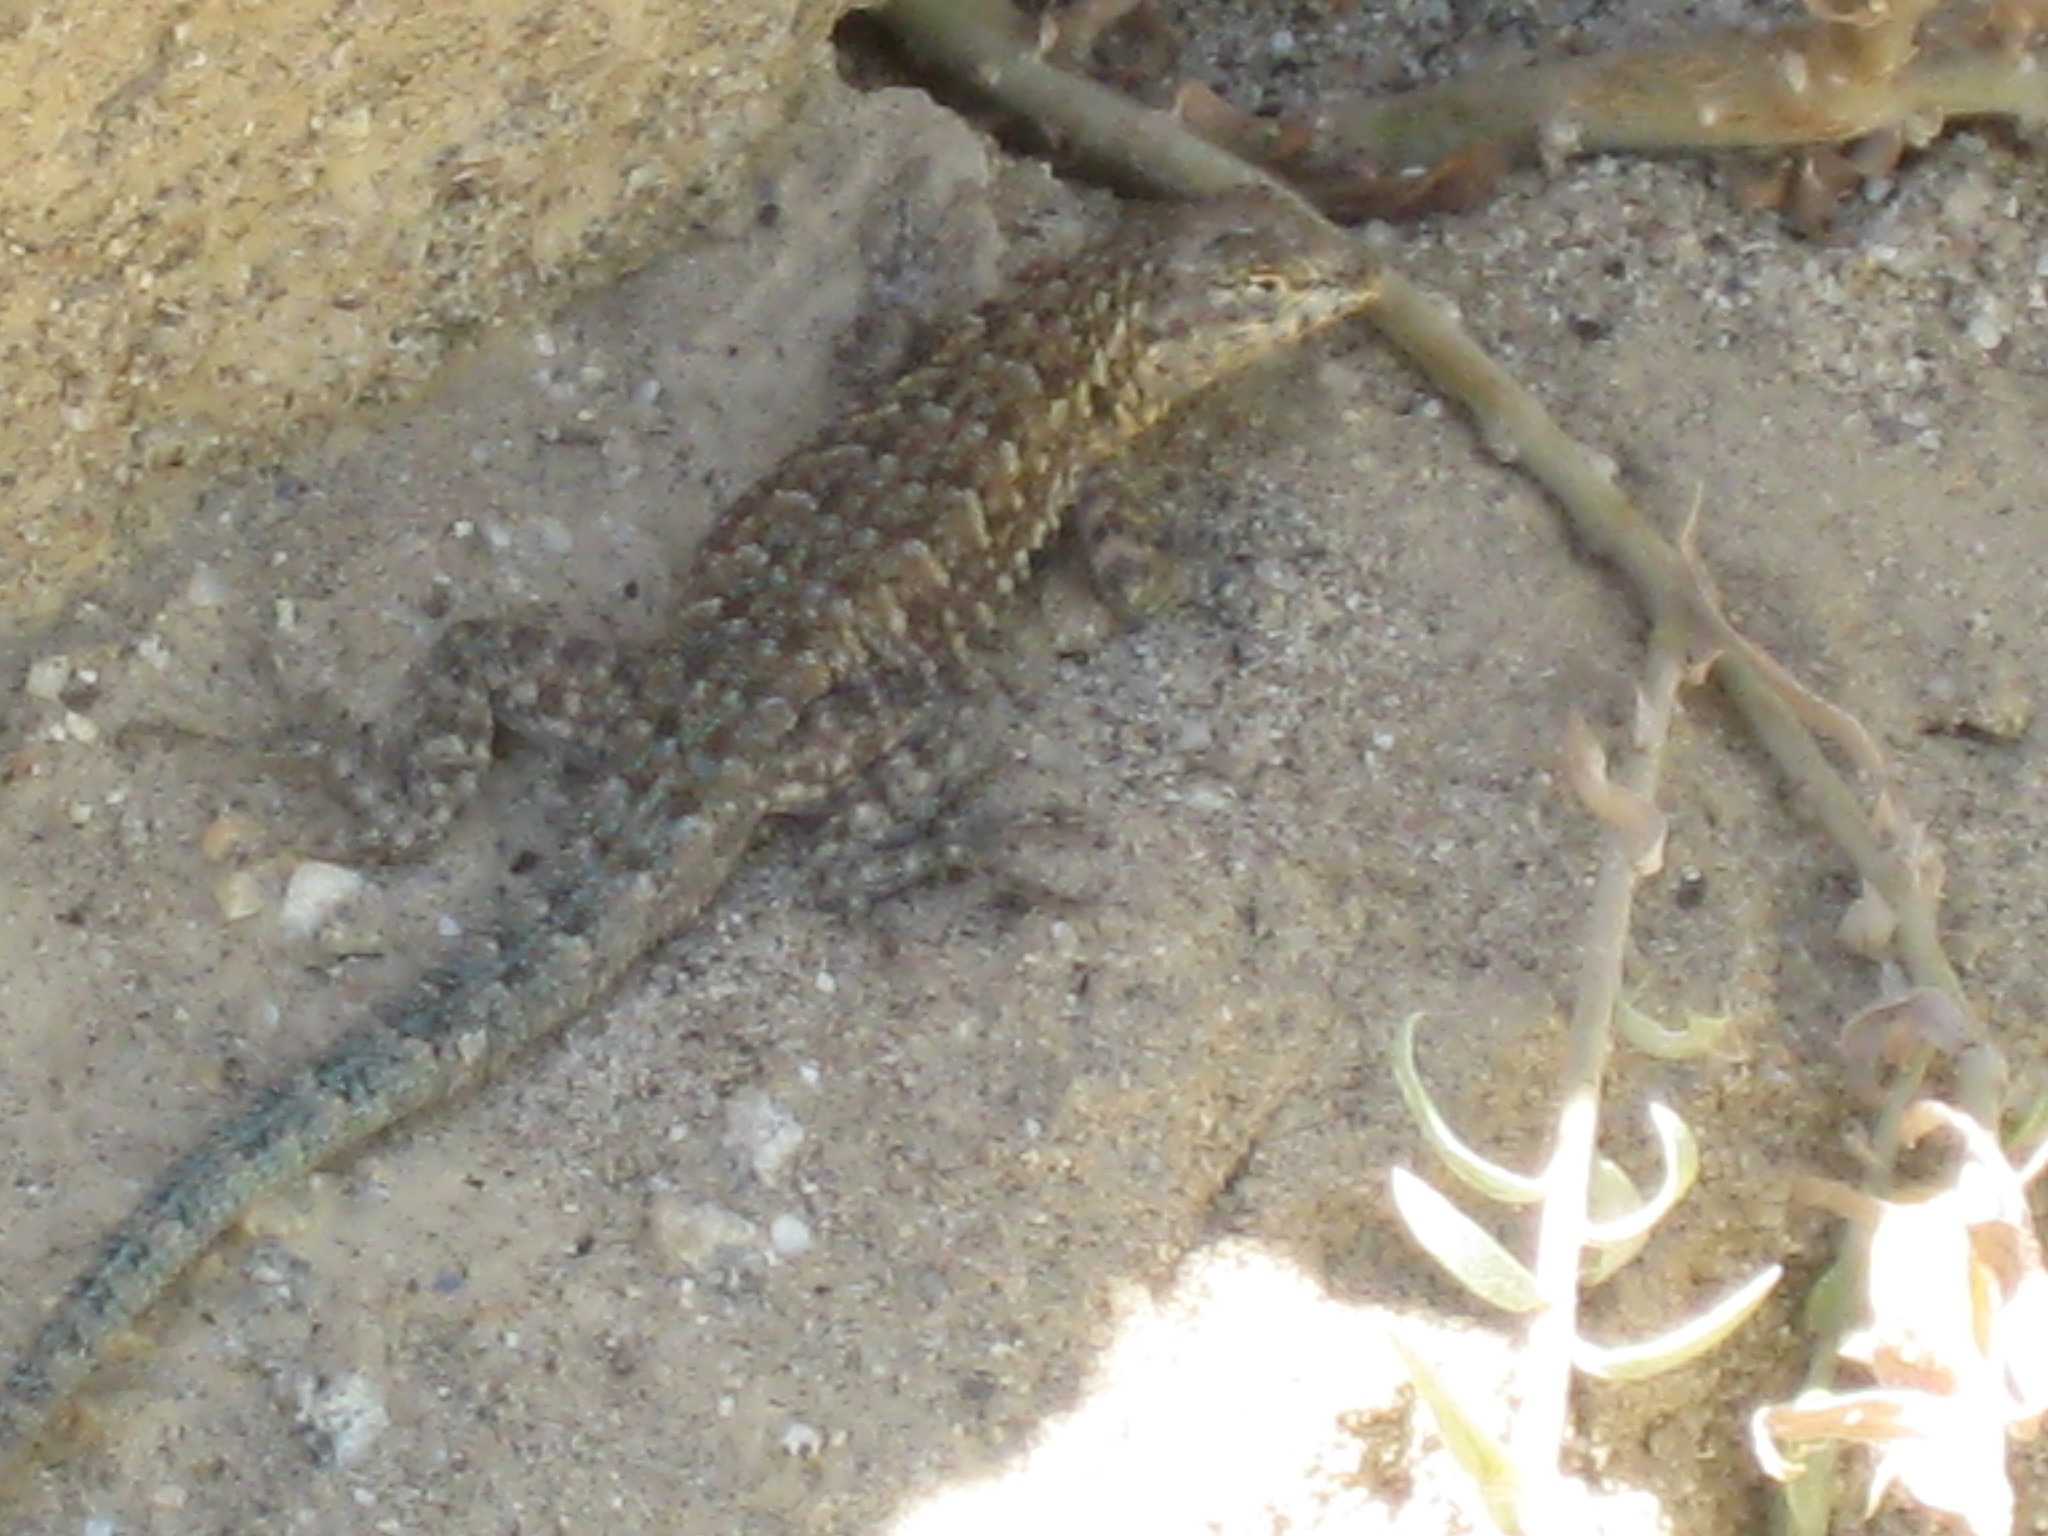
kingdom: Animalia
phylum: Chordata
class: Squamata
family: Phrynosomatidae
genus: Uta
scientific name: Uta stansburiana
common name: Side-blotched lizard
